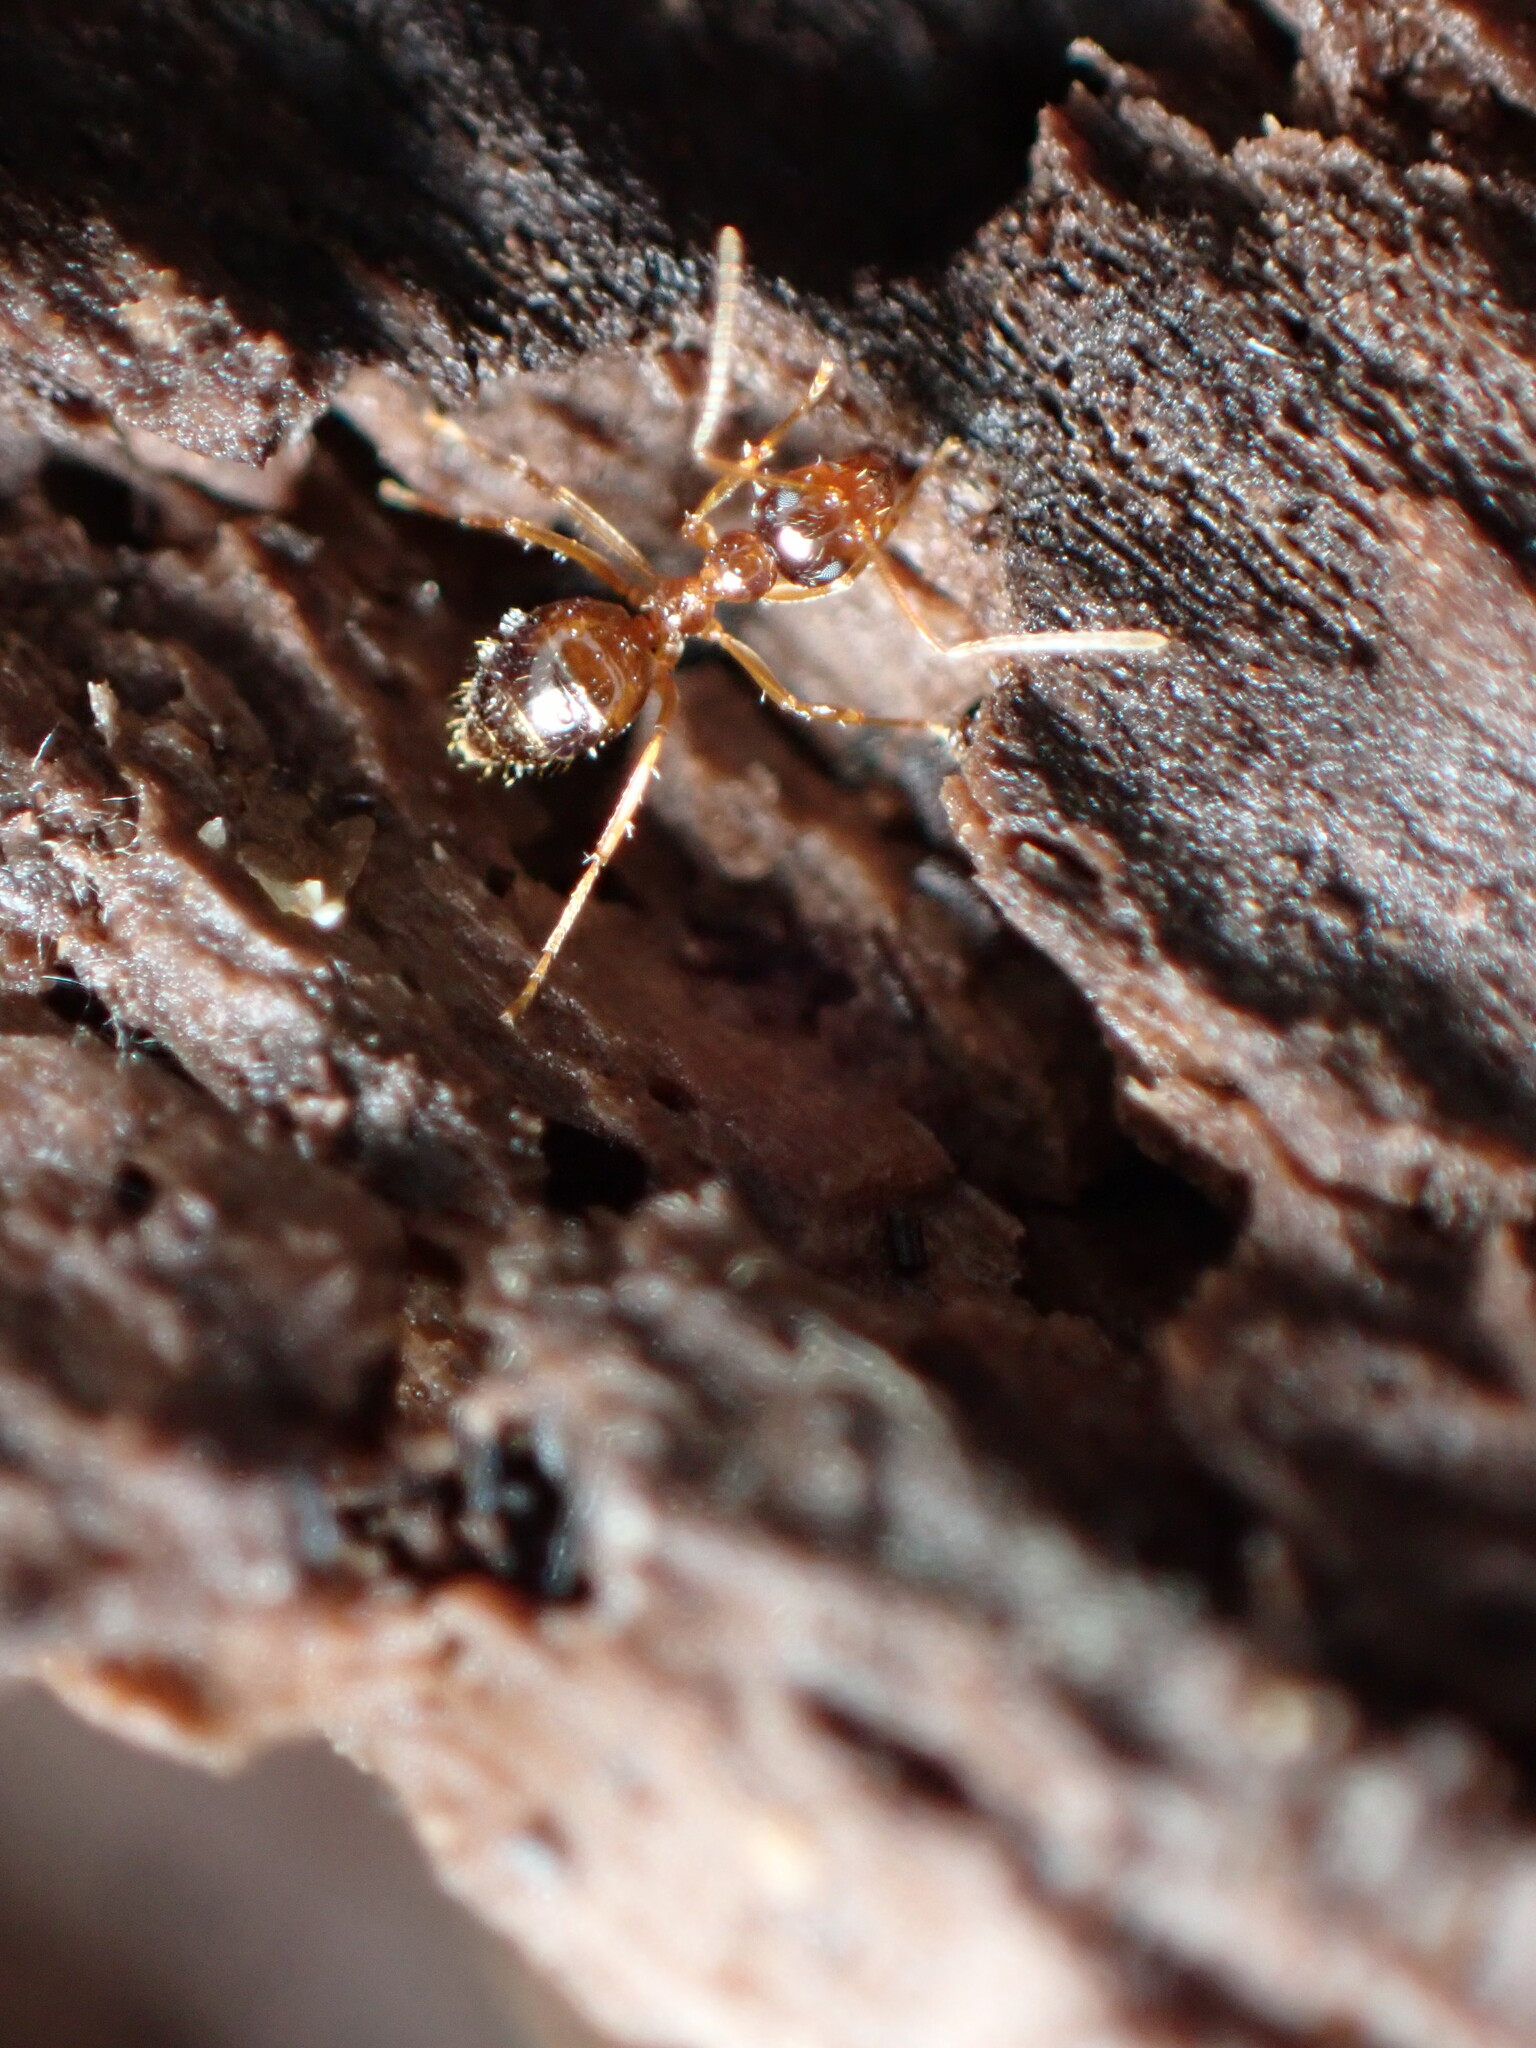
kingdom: Animalia
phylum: Arthropoda
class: Insecta
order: Hymenoptera
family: Formicidae
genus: Prenolepis
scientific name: Prenolepis imparis
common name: Small honey ant
